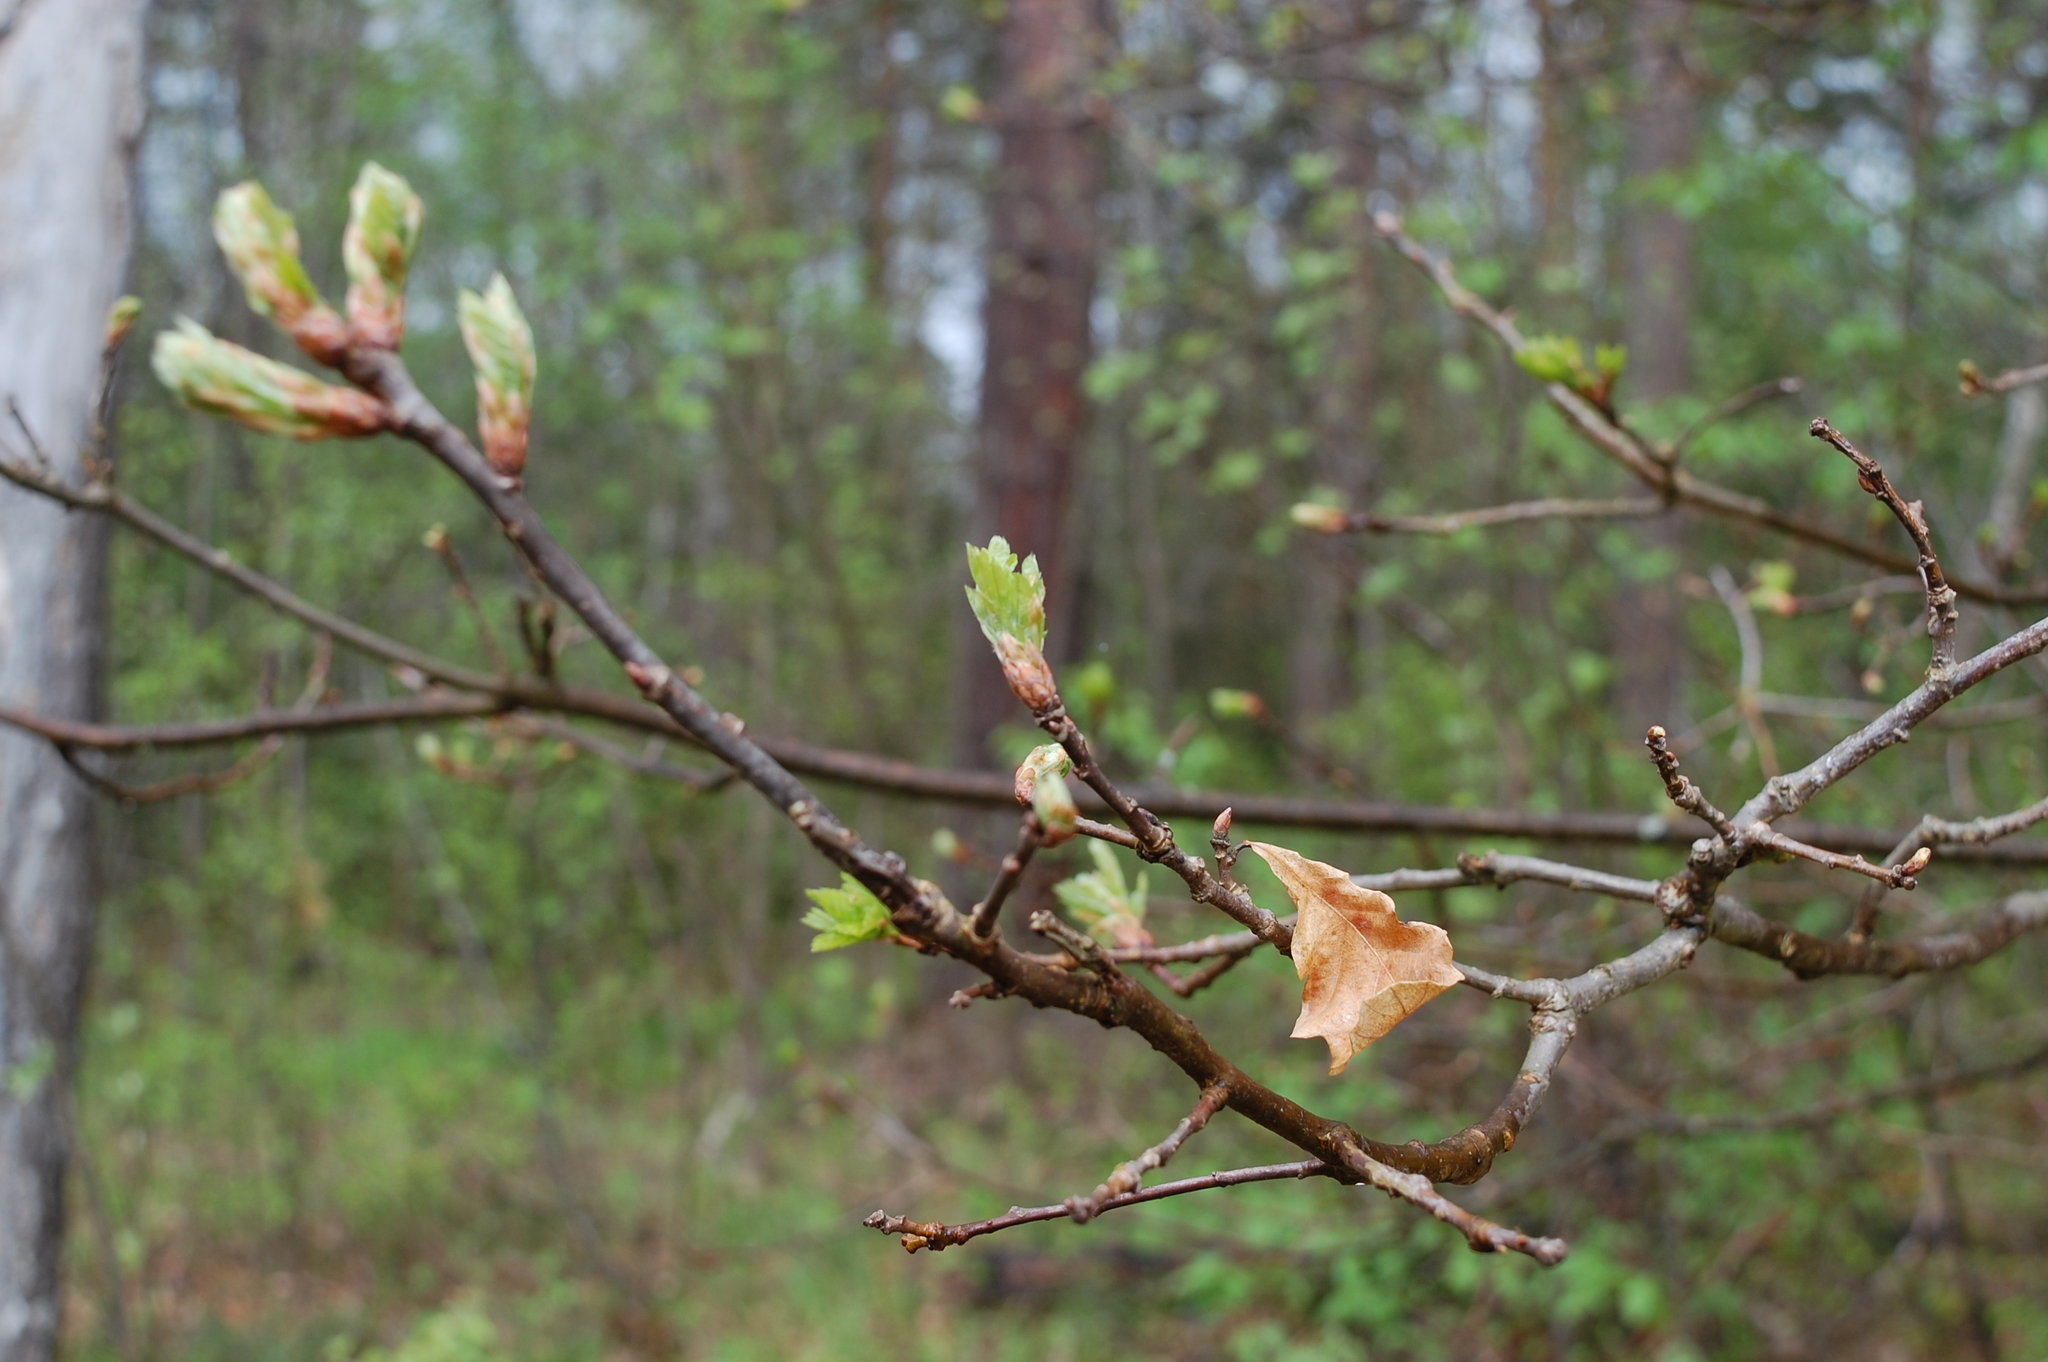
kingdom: Plantae
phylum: Tracheophyta
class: Magnoliopsida
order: Fagales
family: Fagaceae
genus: Quercus
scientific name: Quercus robur
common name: Pedunculate oak
